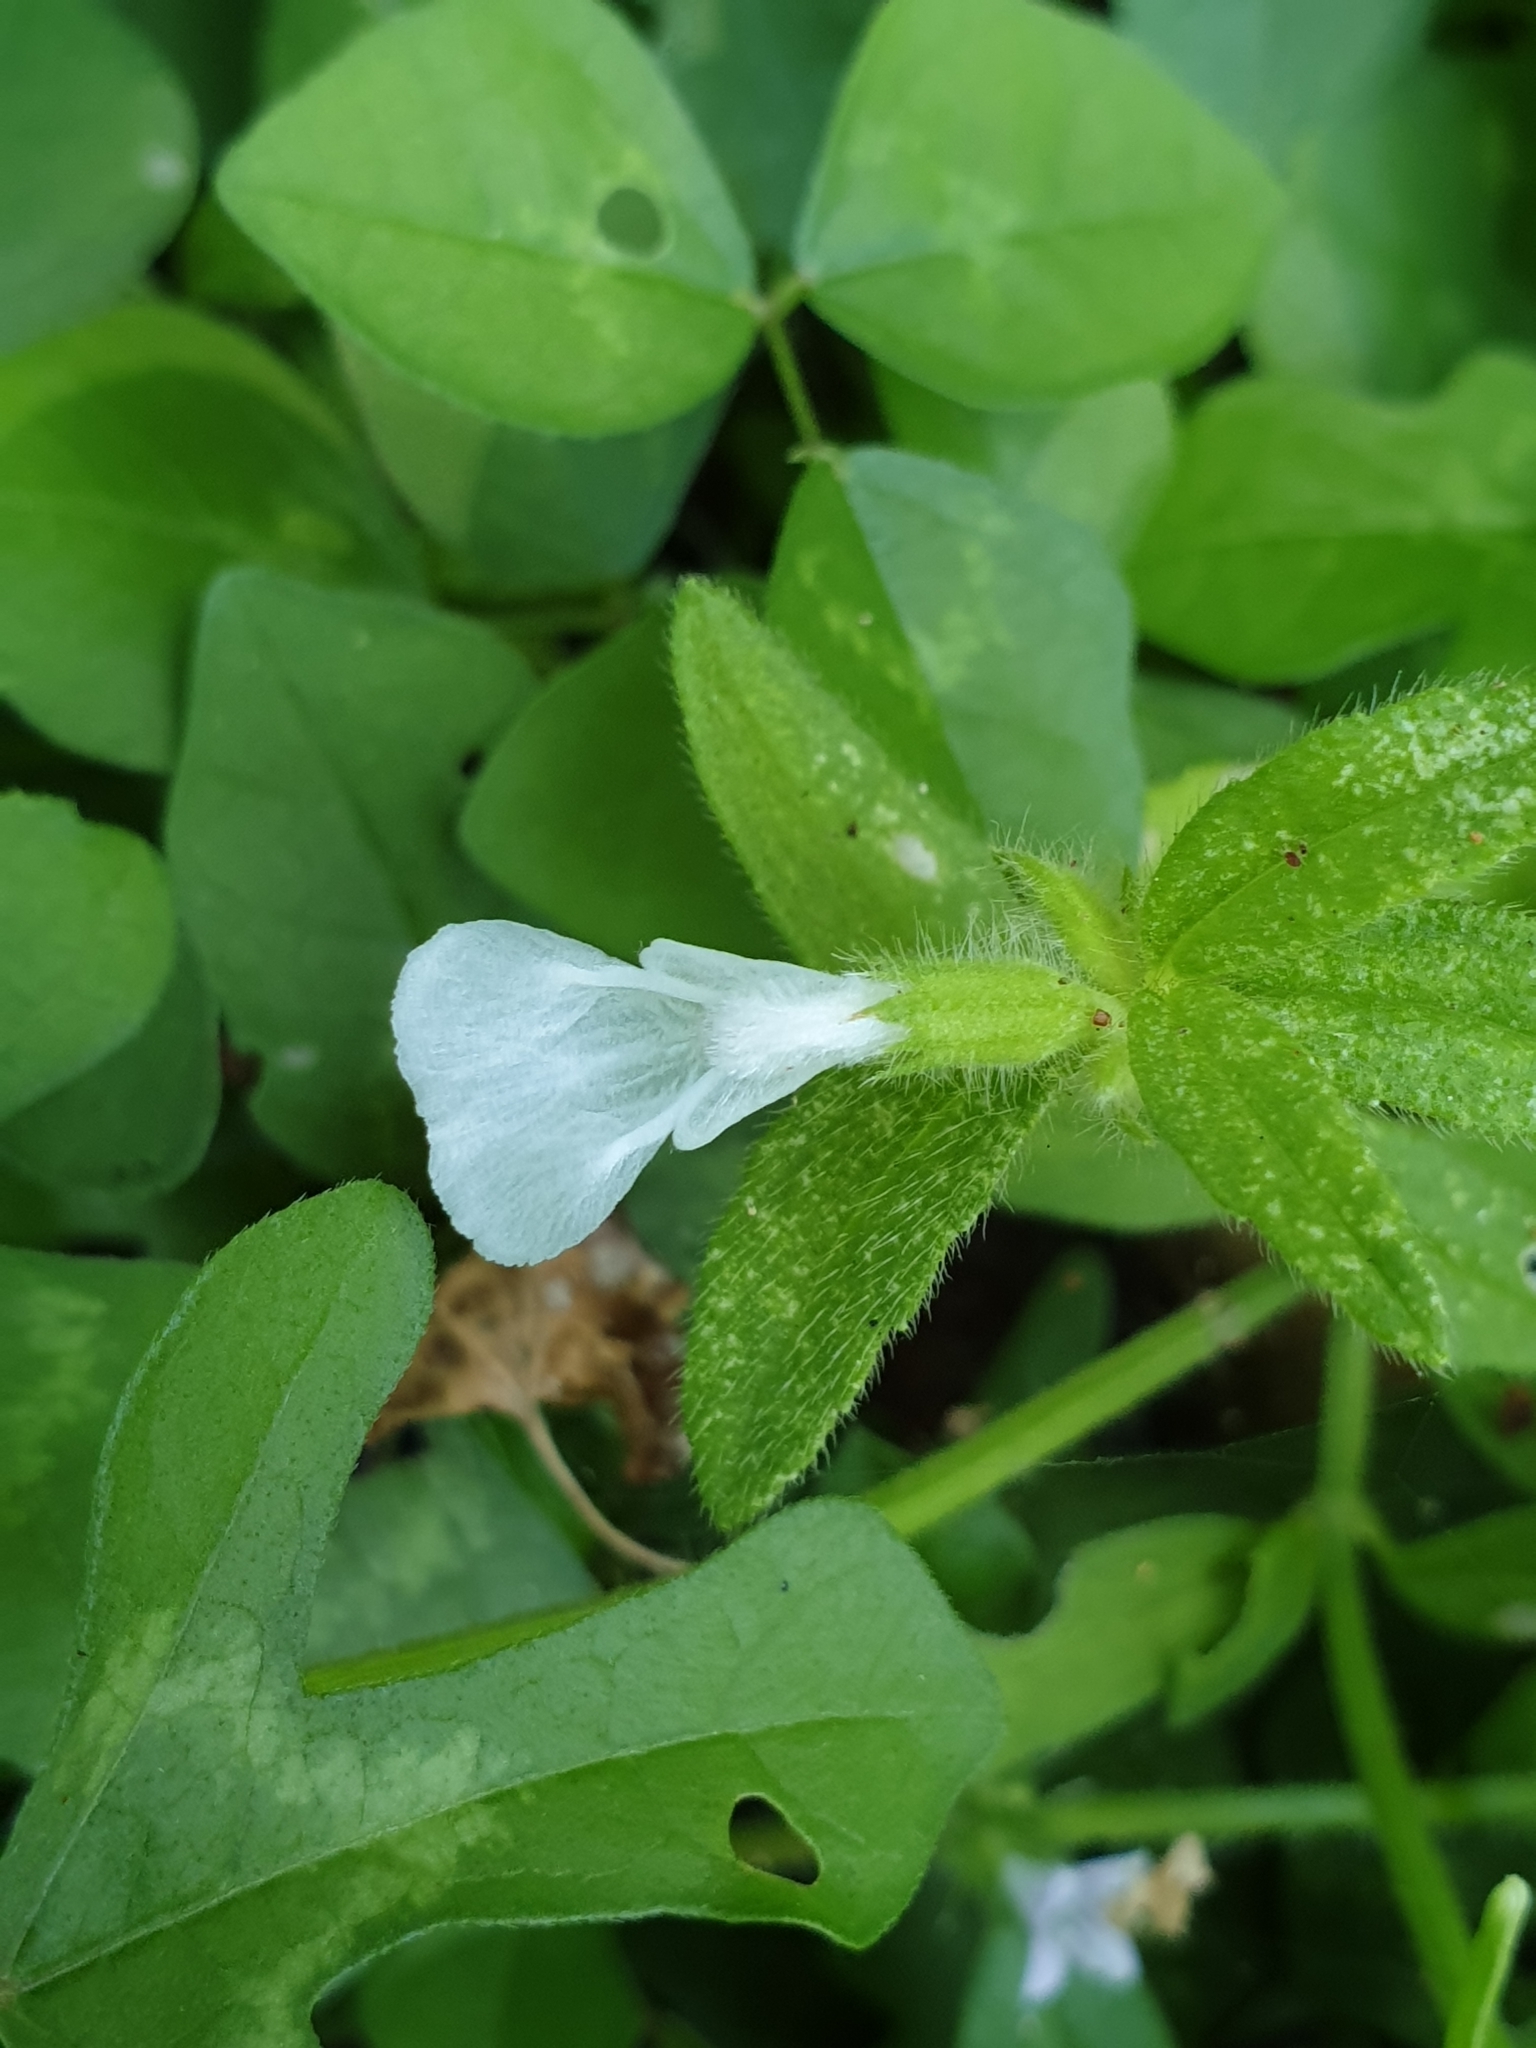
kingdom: Plantae
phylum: Tracheophyta
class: Magnoliopsida
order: Lamiales
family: Lamiaceae
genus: Leucas
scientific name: Leucas zeylanica
